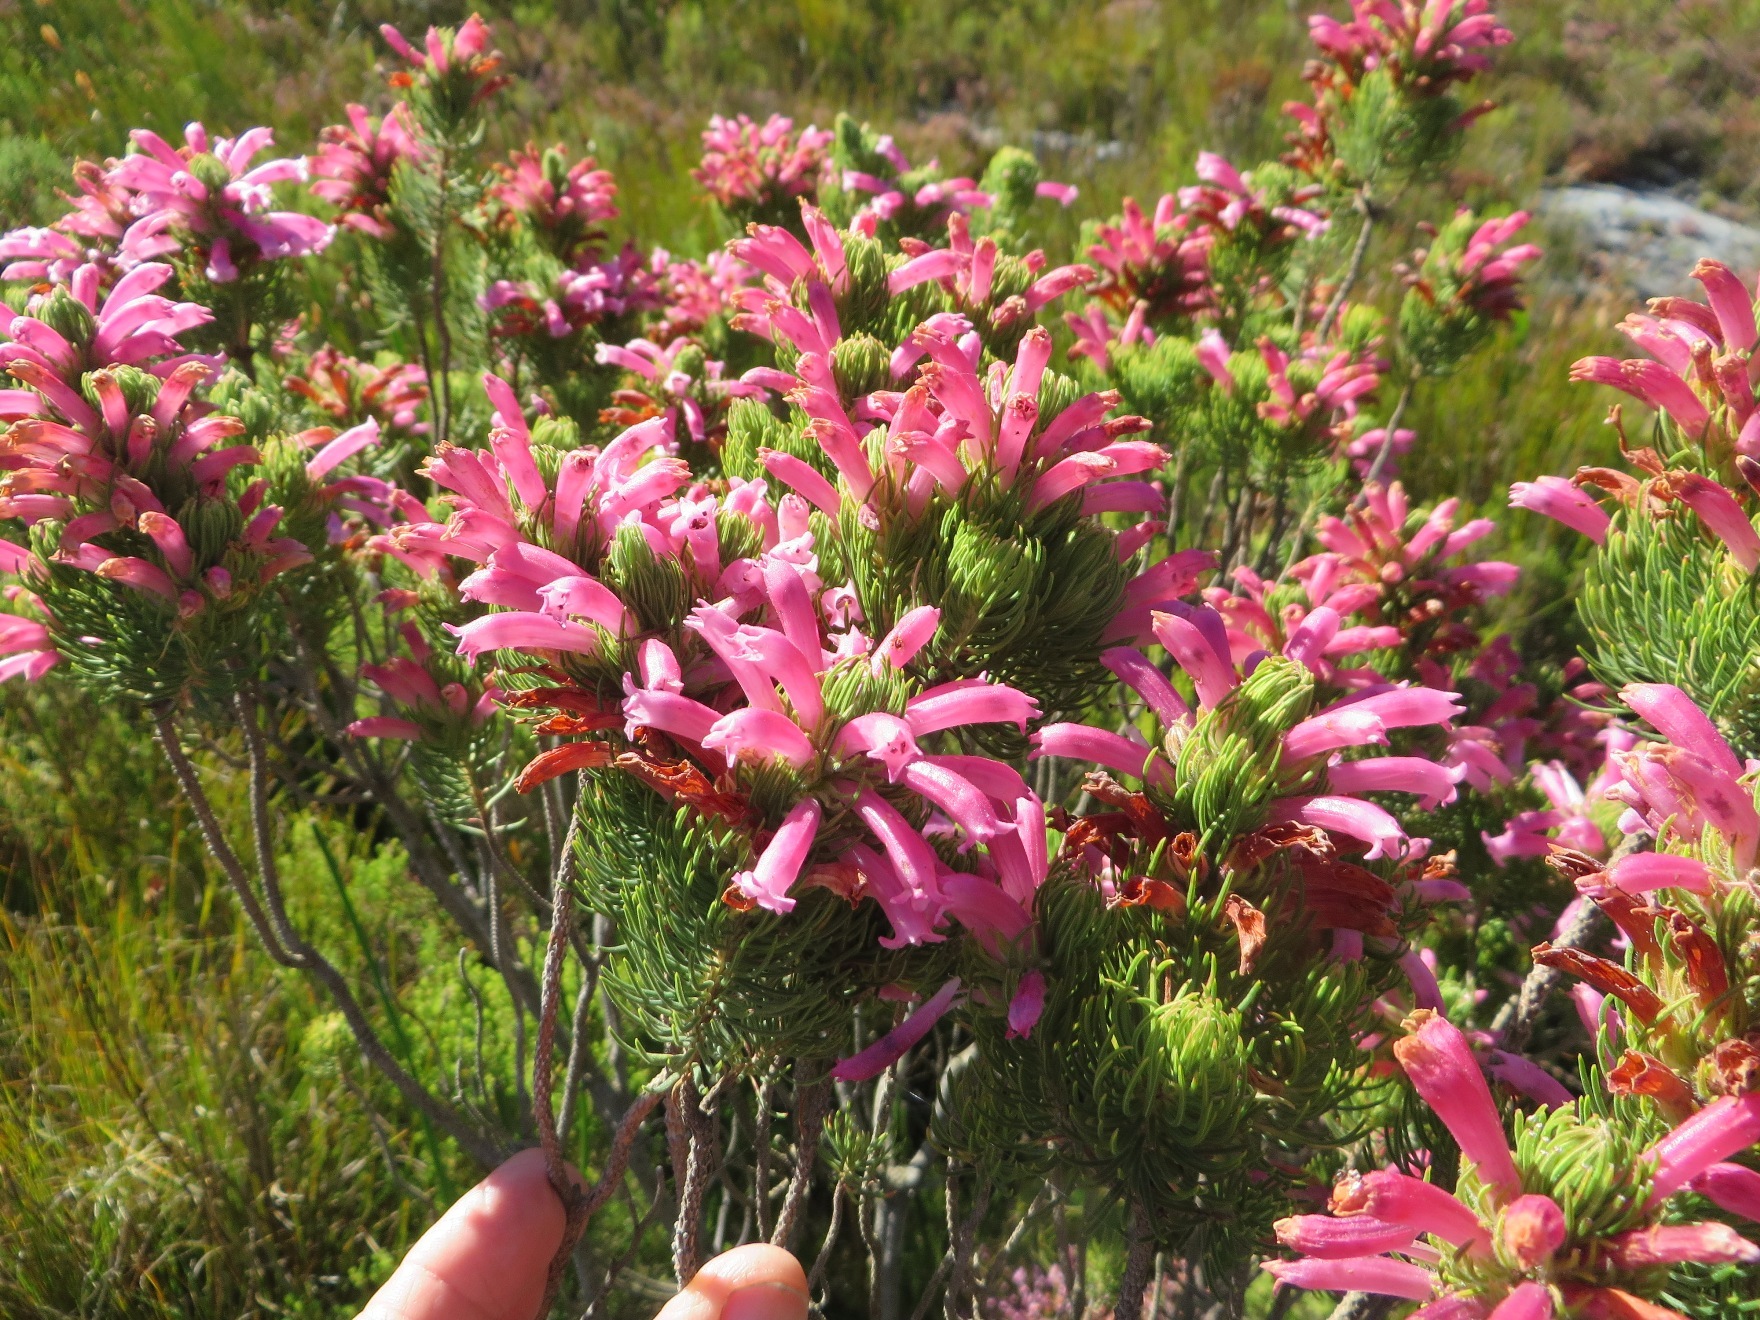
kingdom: Plantae
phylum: Tracheophyta
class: Magnoliopsida
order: Ericales
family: Ericaceae
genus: Erica
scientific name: Erica viscaria
